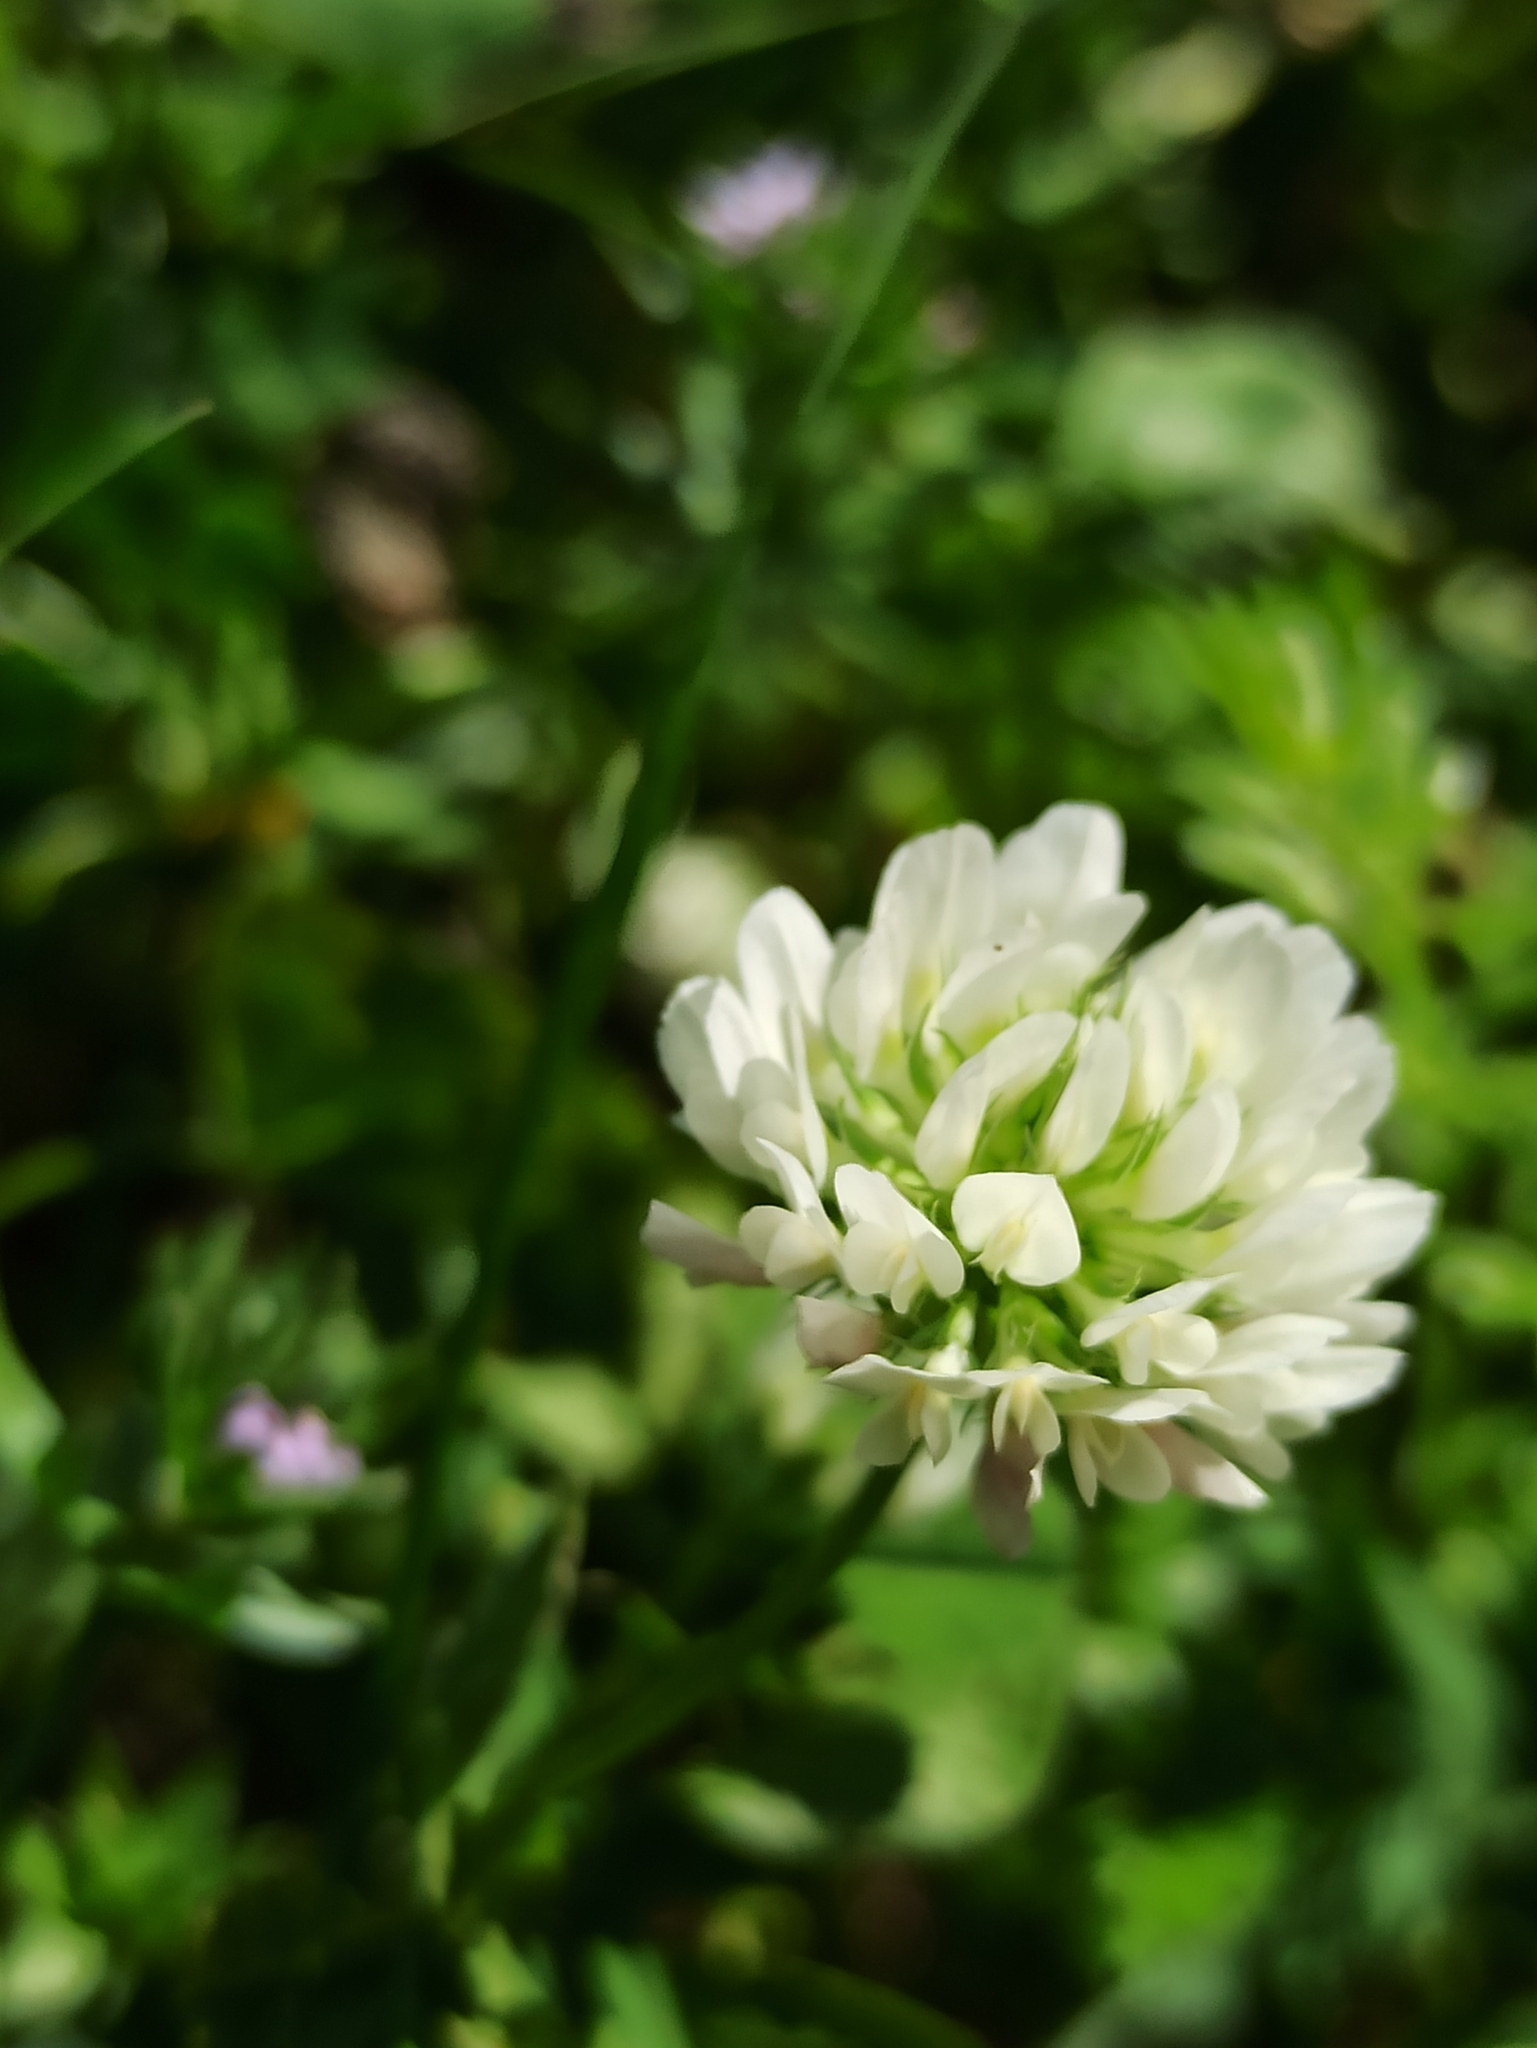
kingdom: Plantae
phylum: Tracheophyta
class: Magnoliopsida
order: Fabales
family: Fabaceae
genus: Trifolium
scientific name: Trifolium nigrescens
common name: Small white clover
